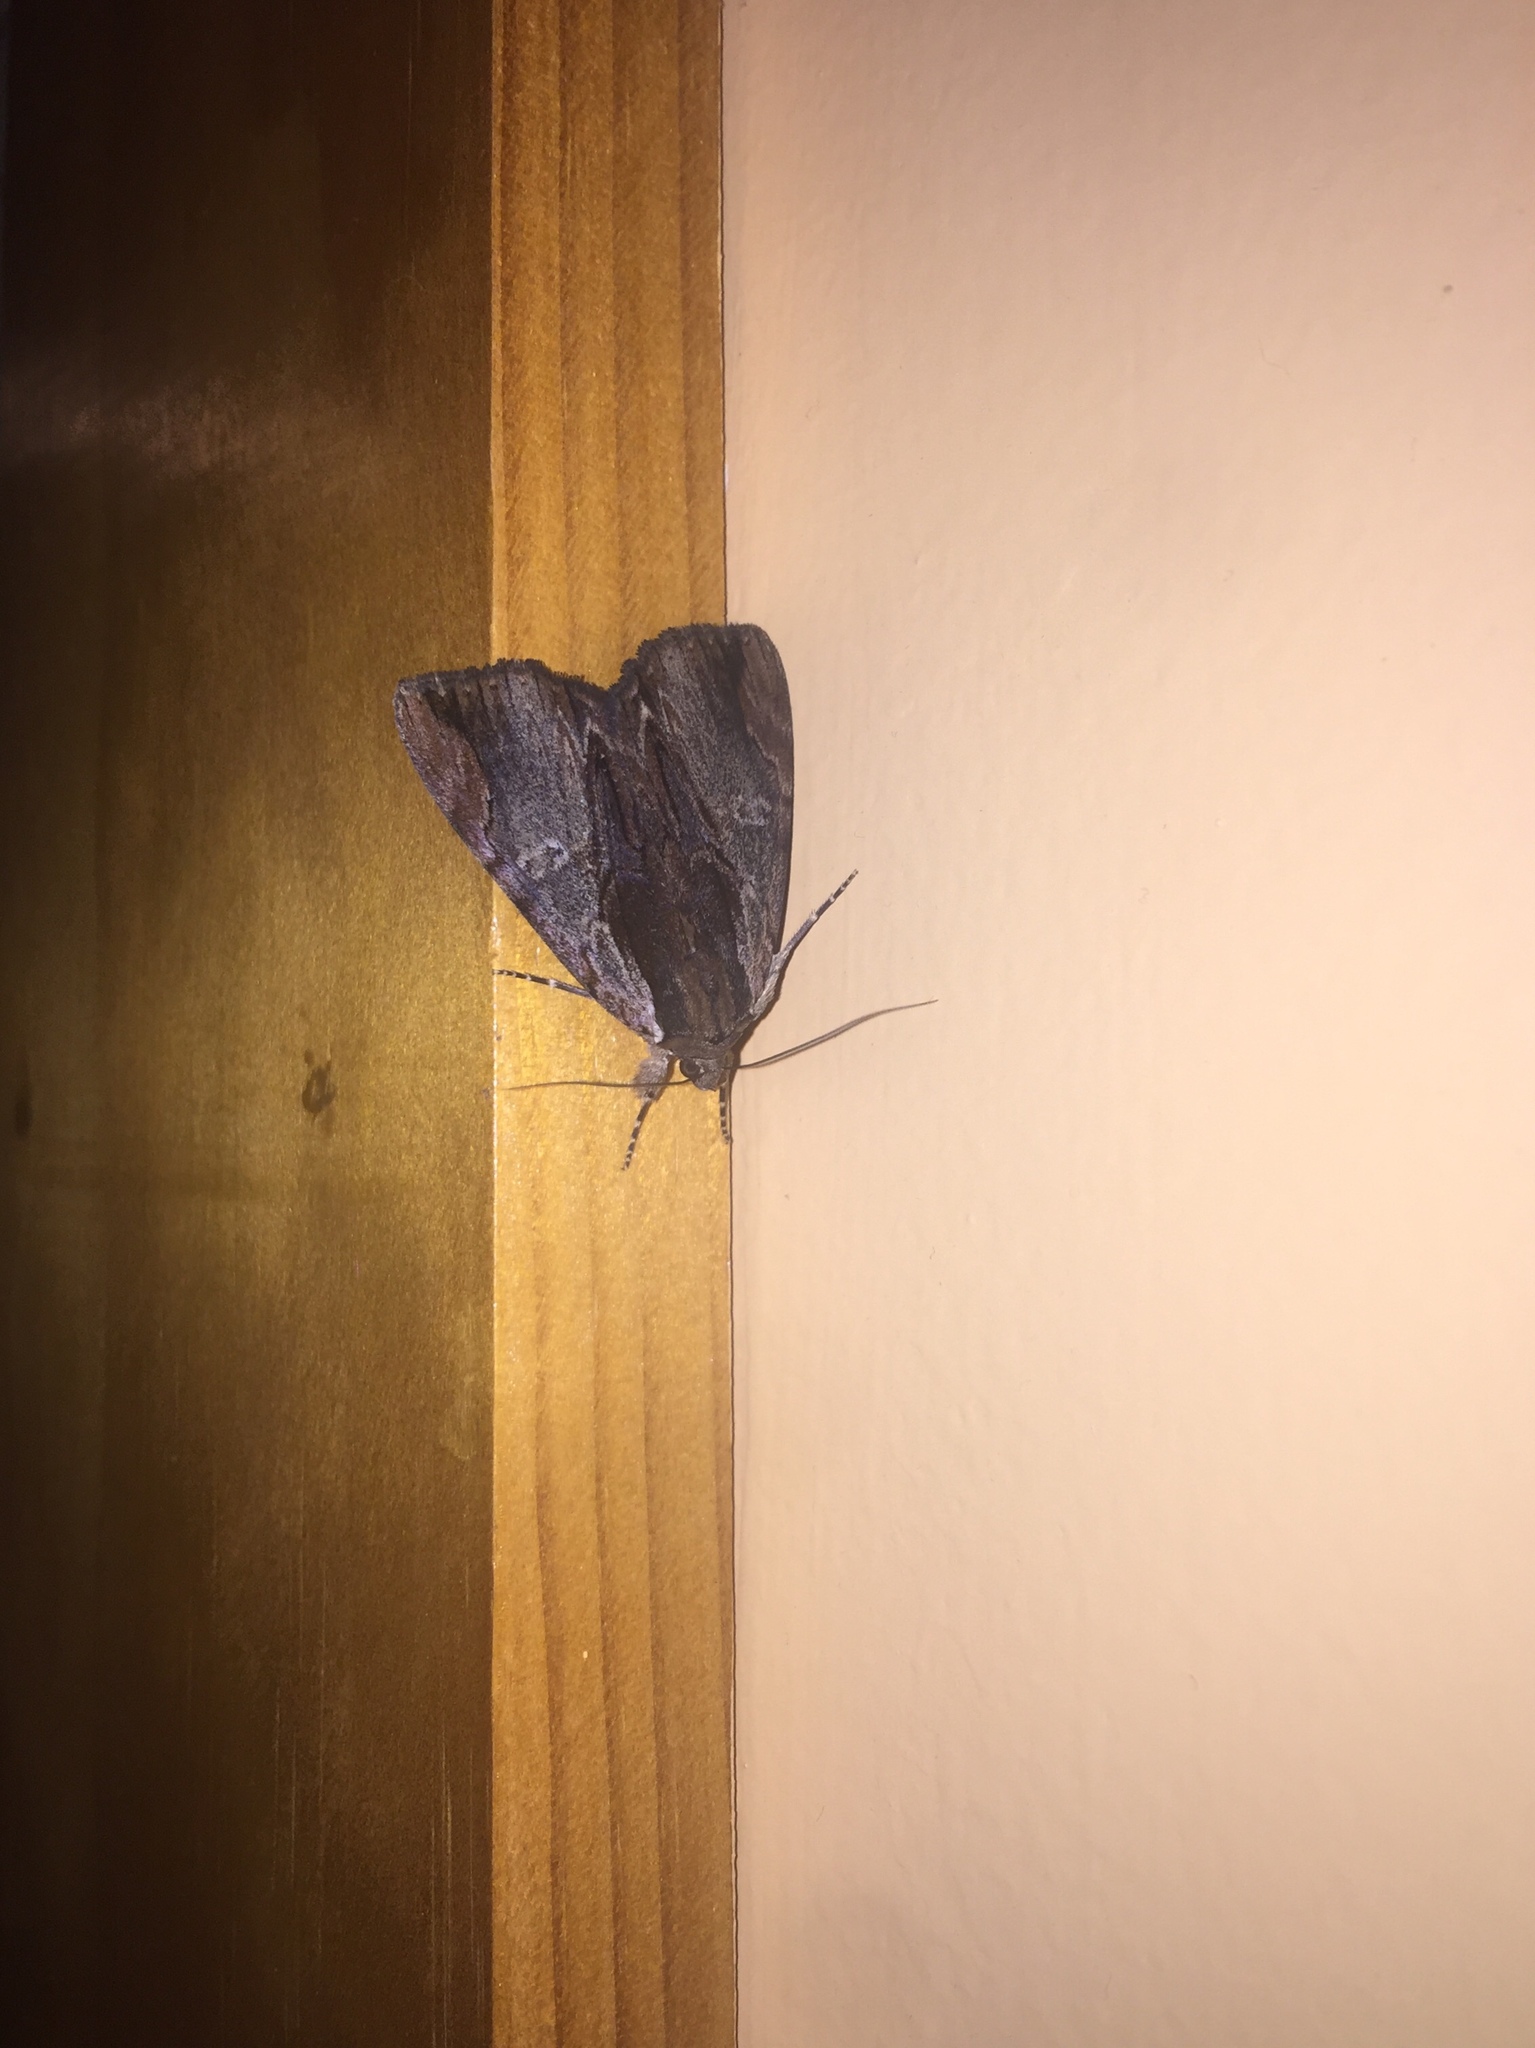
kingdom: Animalia
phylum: Arthropoda
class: Insecta
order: Lepidoptera
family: Erebidae
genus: Catocala
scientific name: Catocala ultronia
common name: Ultronia underwing
